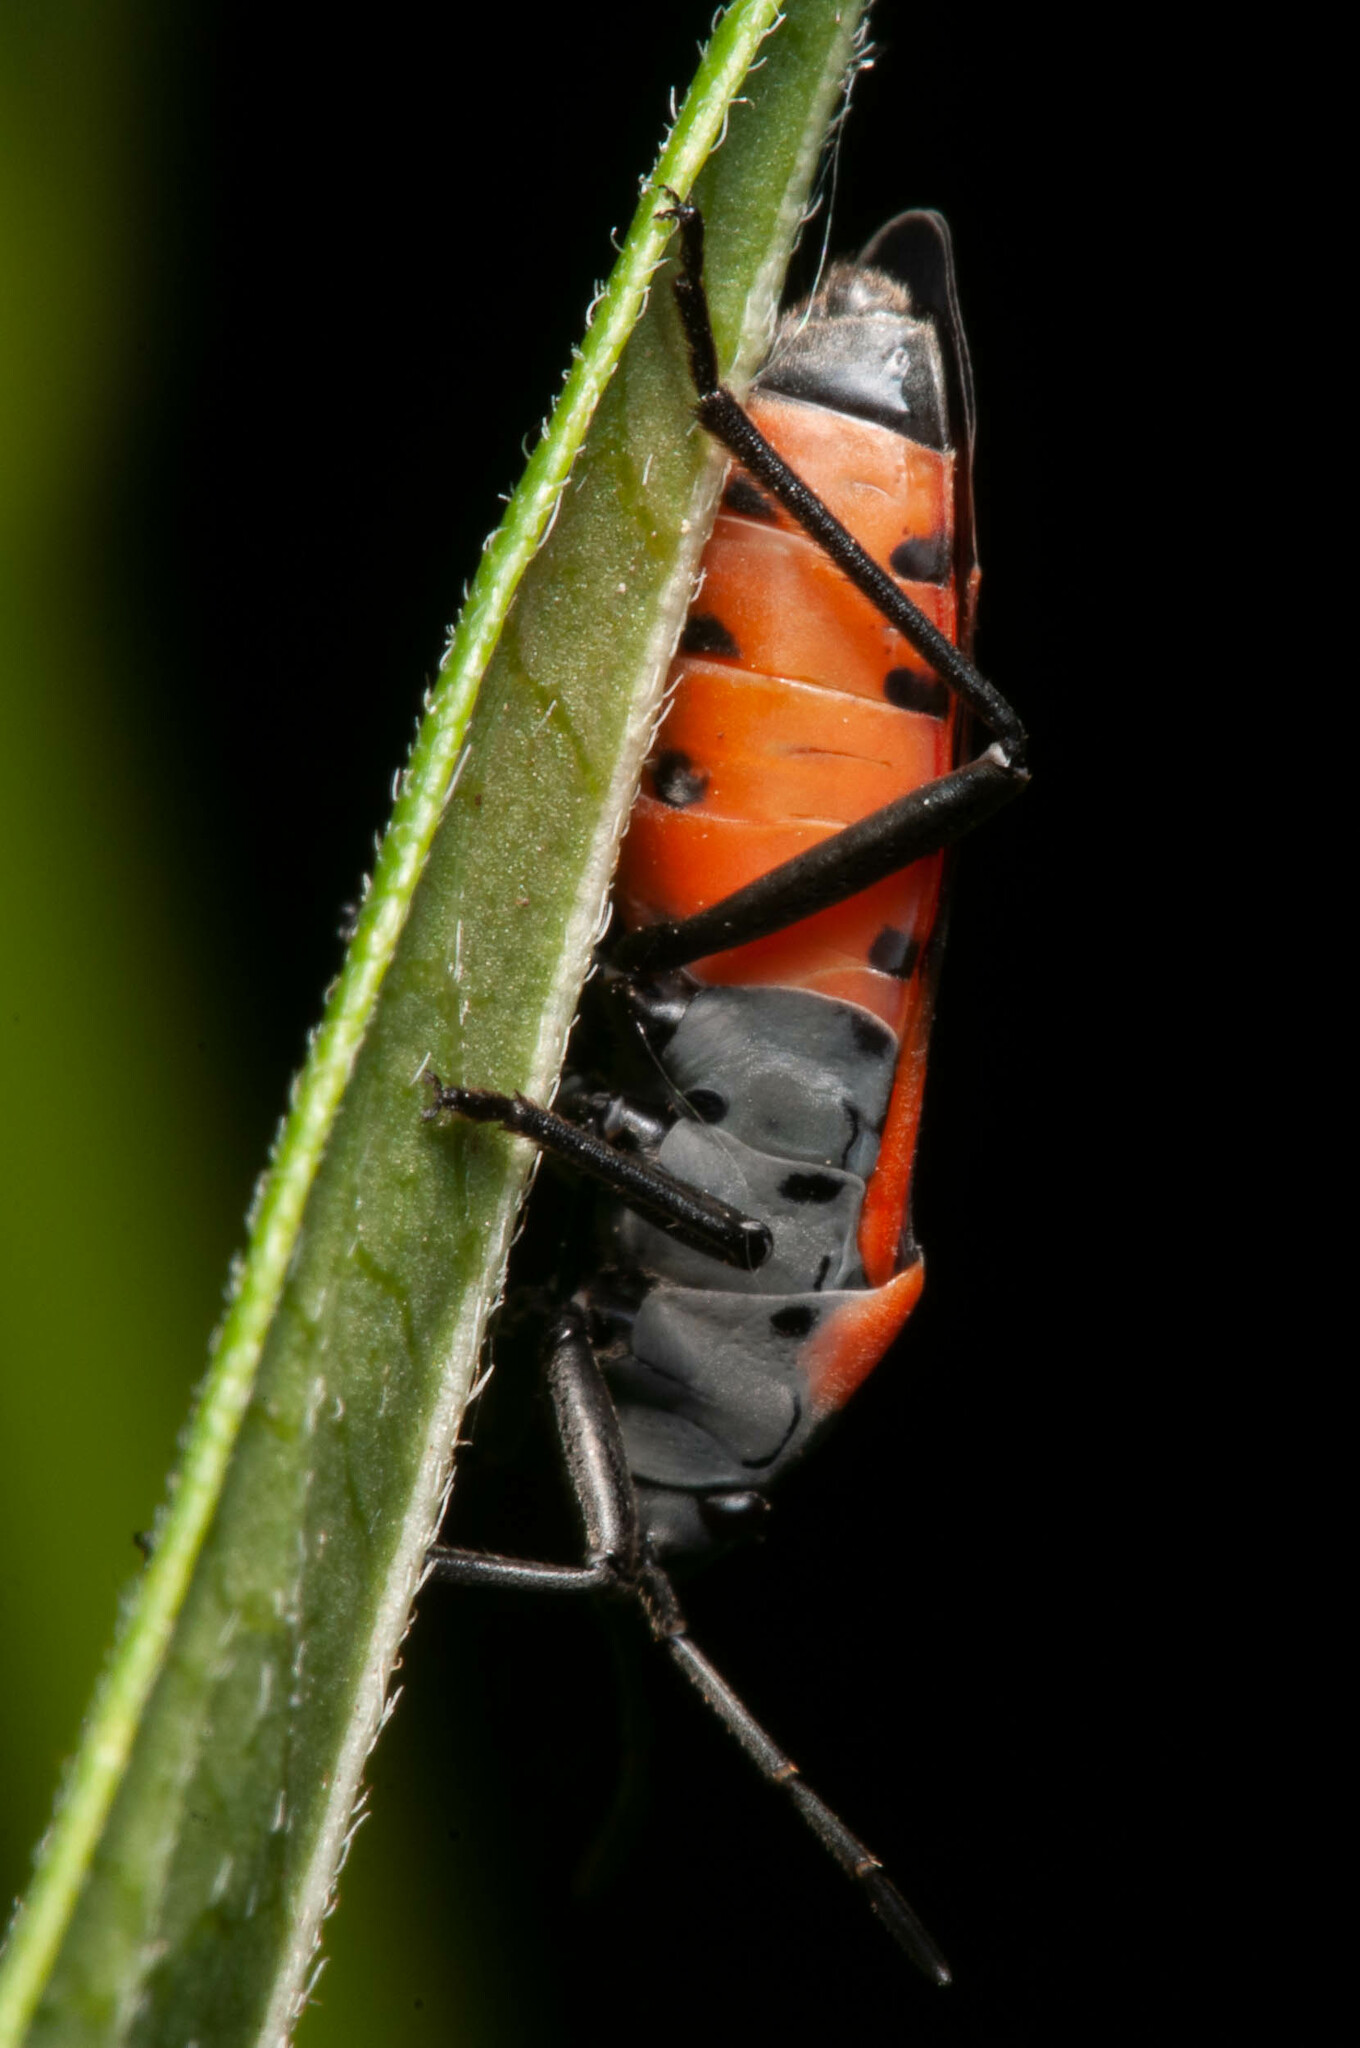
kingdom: Animalia
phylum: Arthropoda
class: Insecta
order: Hemiptera
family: Lygaeidae
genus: Lygaeus
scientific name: Lygaeus kalmii
